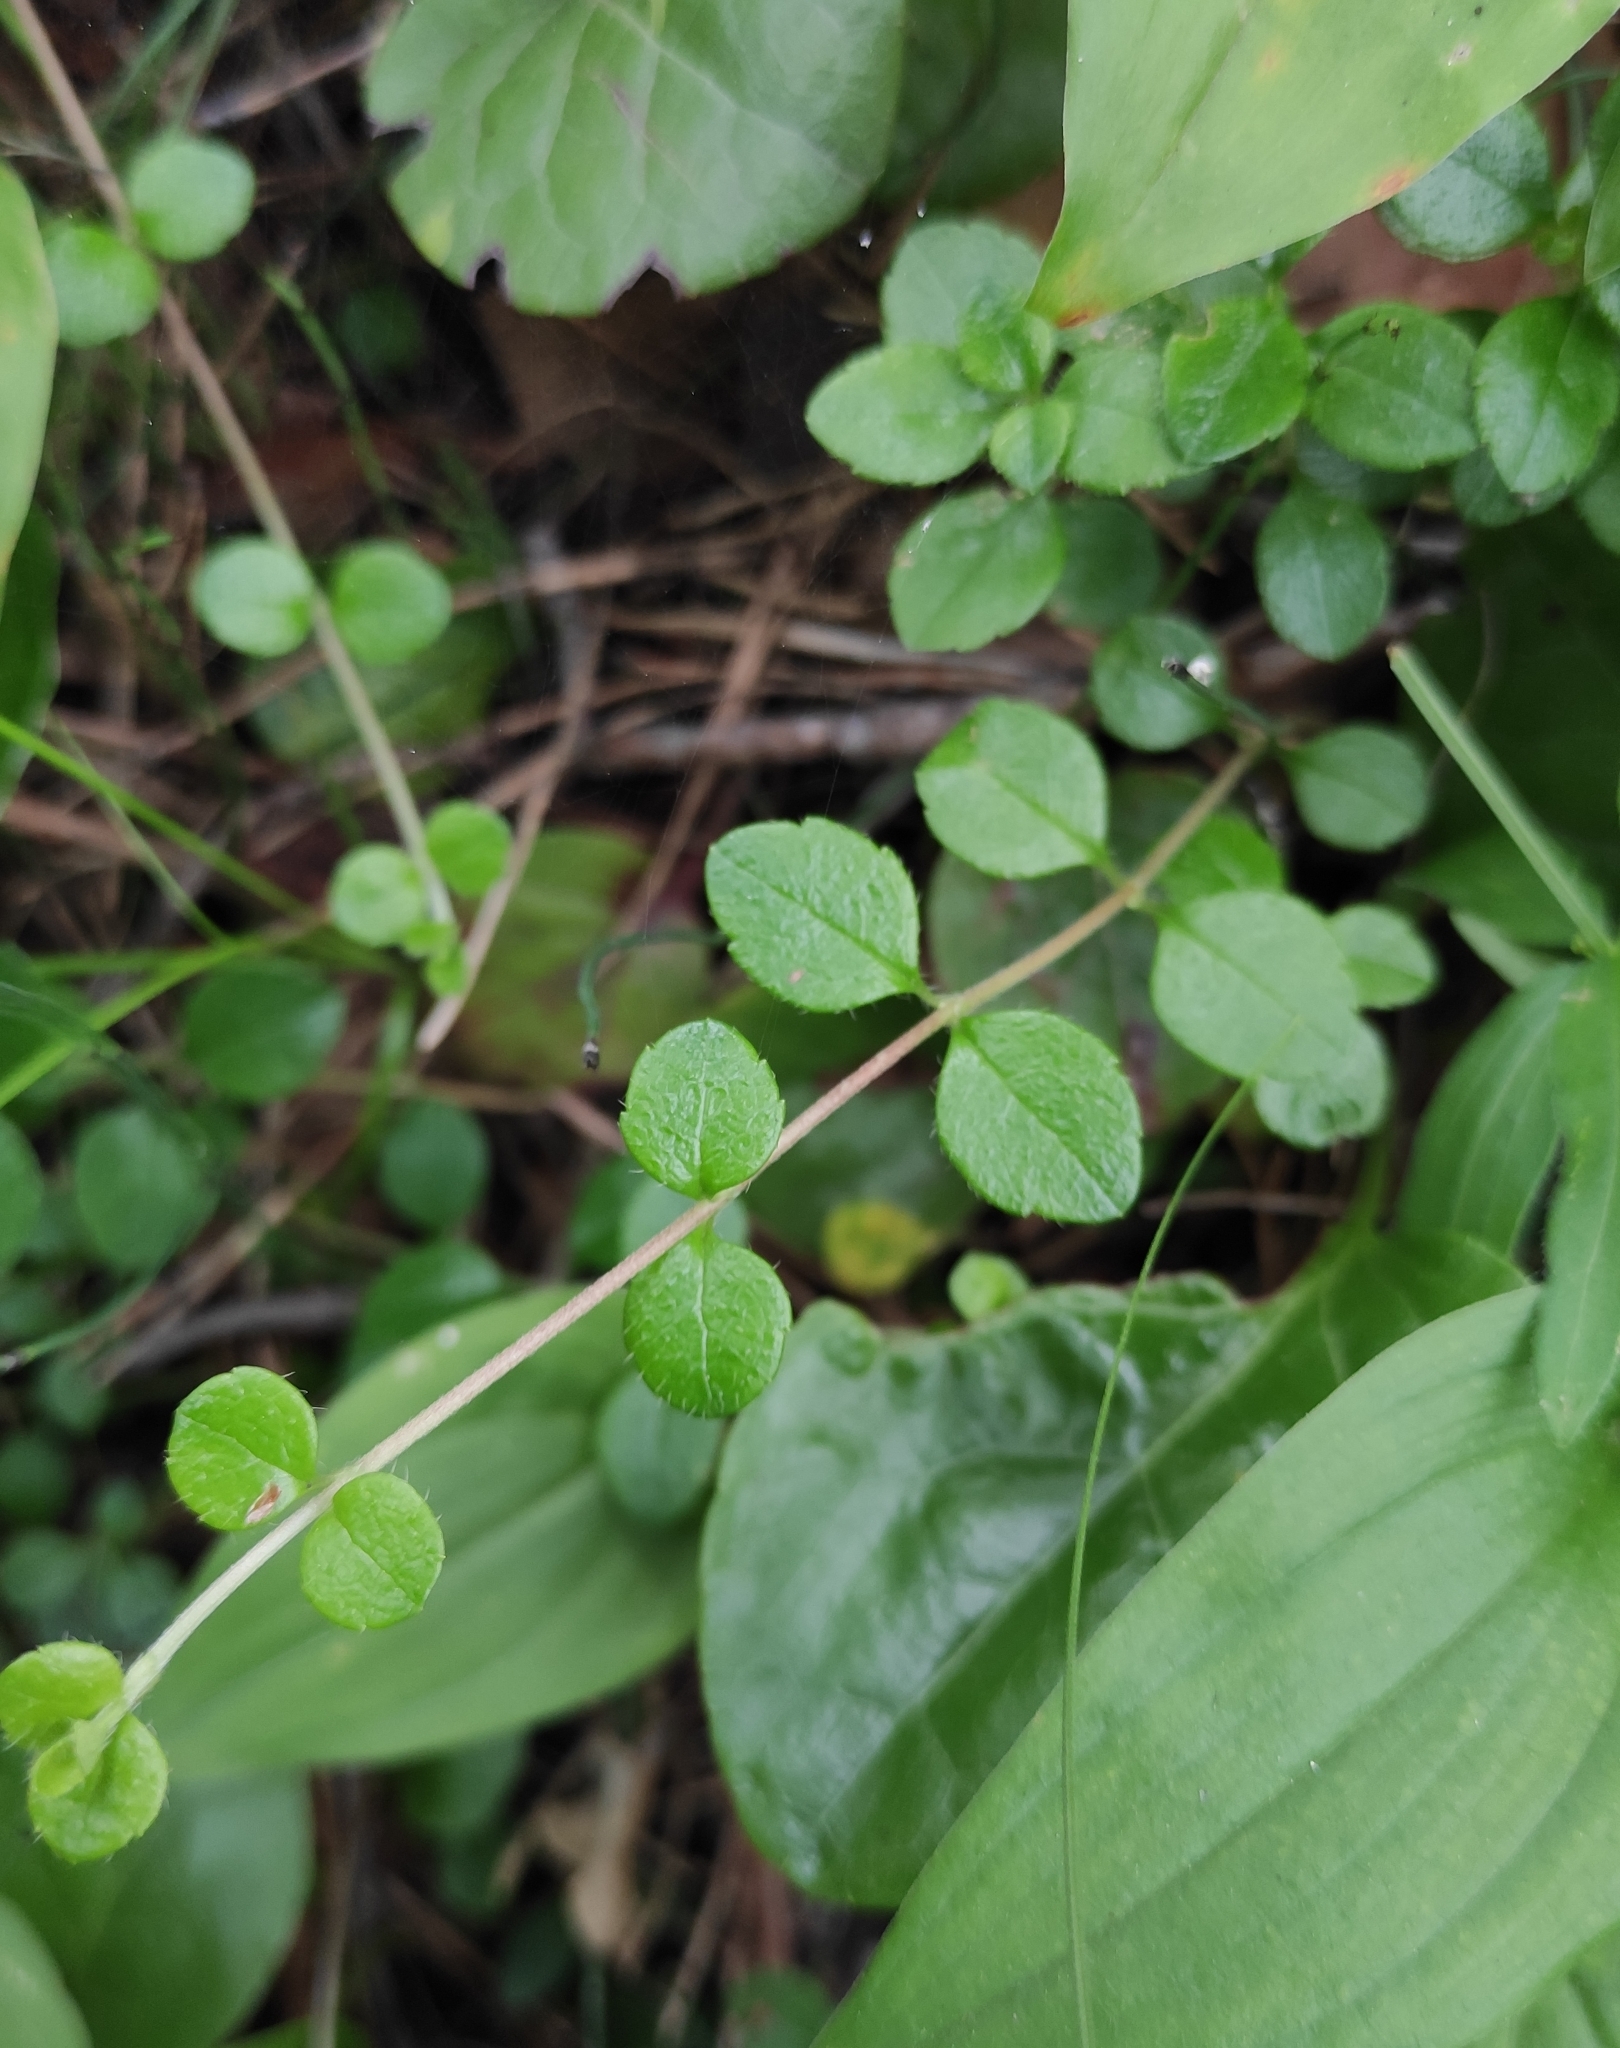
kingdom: Plantae
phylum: Tracheophyta
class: Magnoliopsida
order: Dipsacales
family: Caprifoliaceae
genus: Linnaea
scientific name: Linnaea borealis
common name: Twinflower
